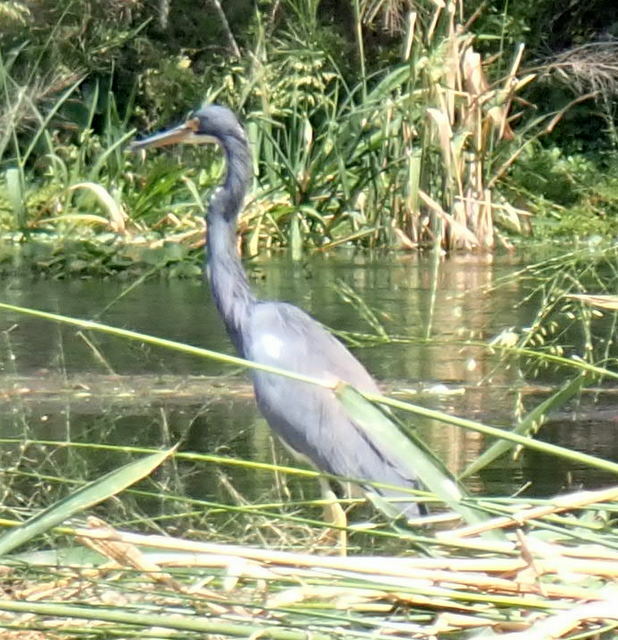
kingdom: Animalia
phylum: Chordata
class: Aves
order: Pelecaniformes
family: Ardeidae
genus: Egretta
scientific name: Egretta tricolor
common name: Tricolored heron
